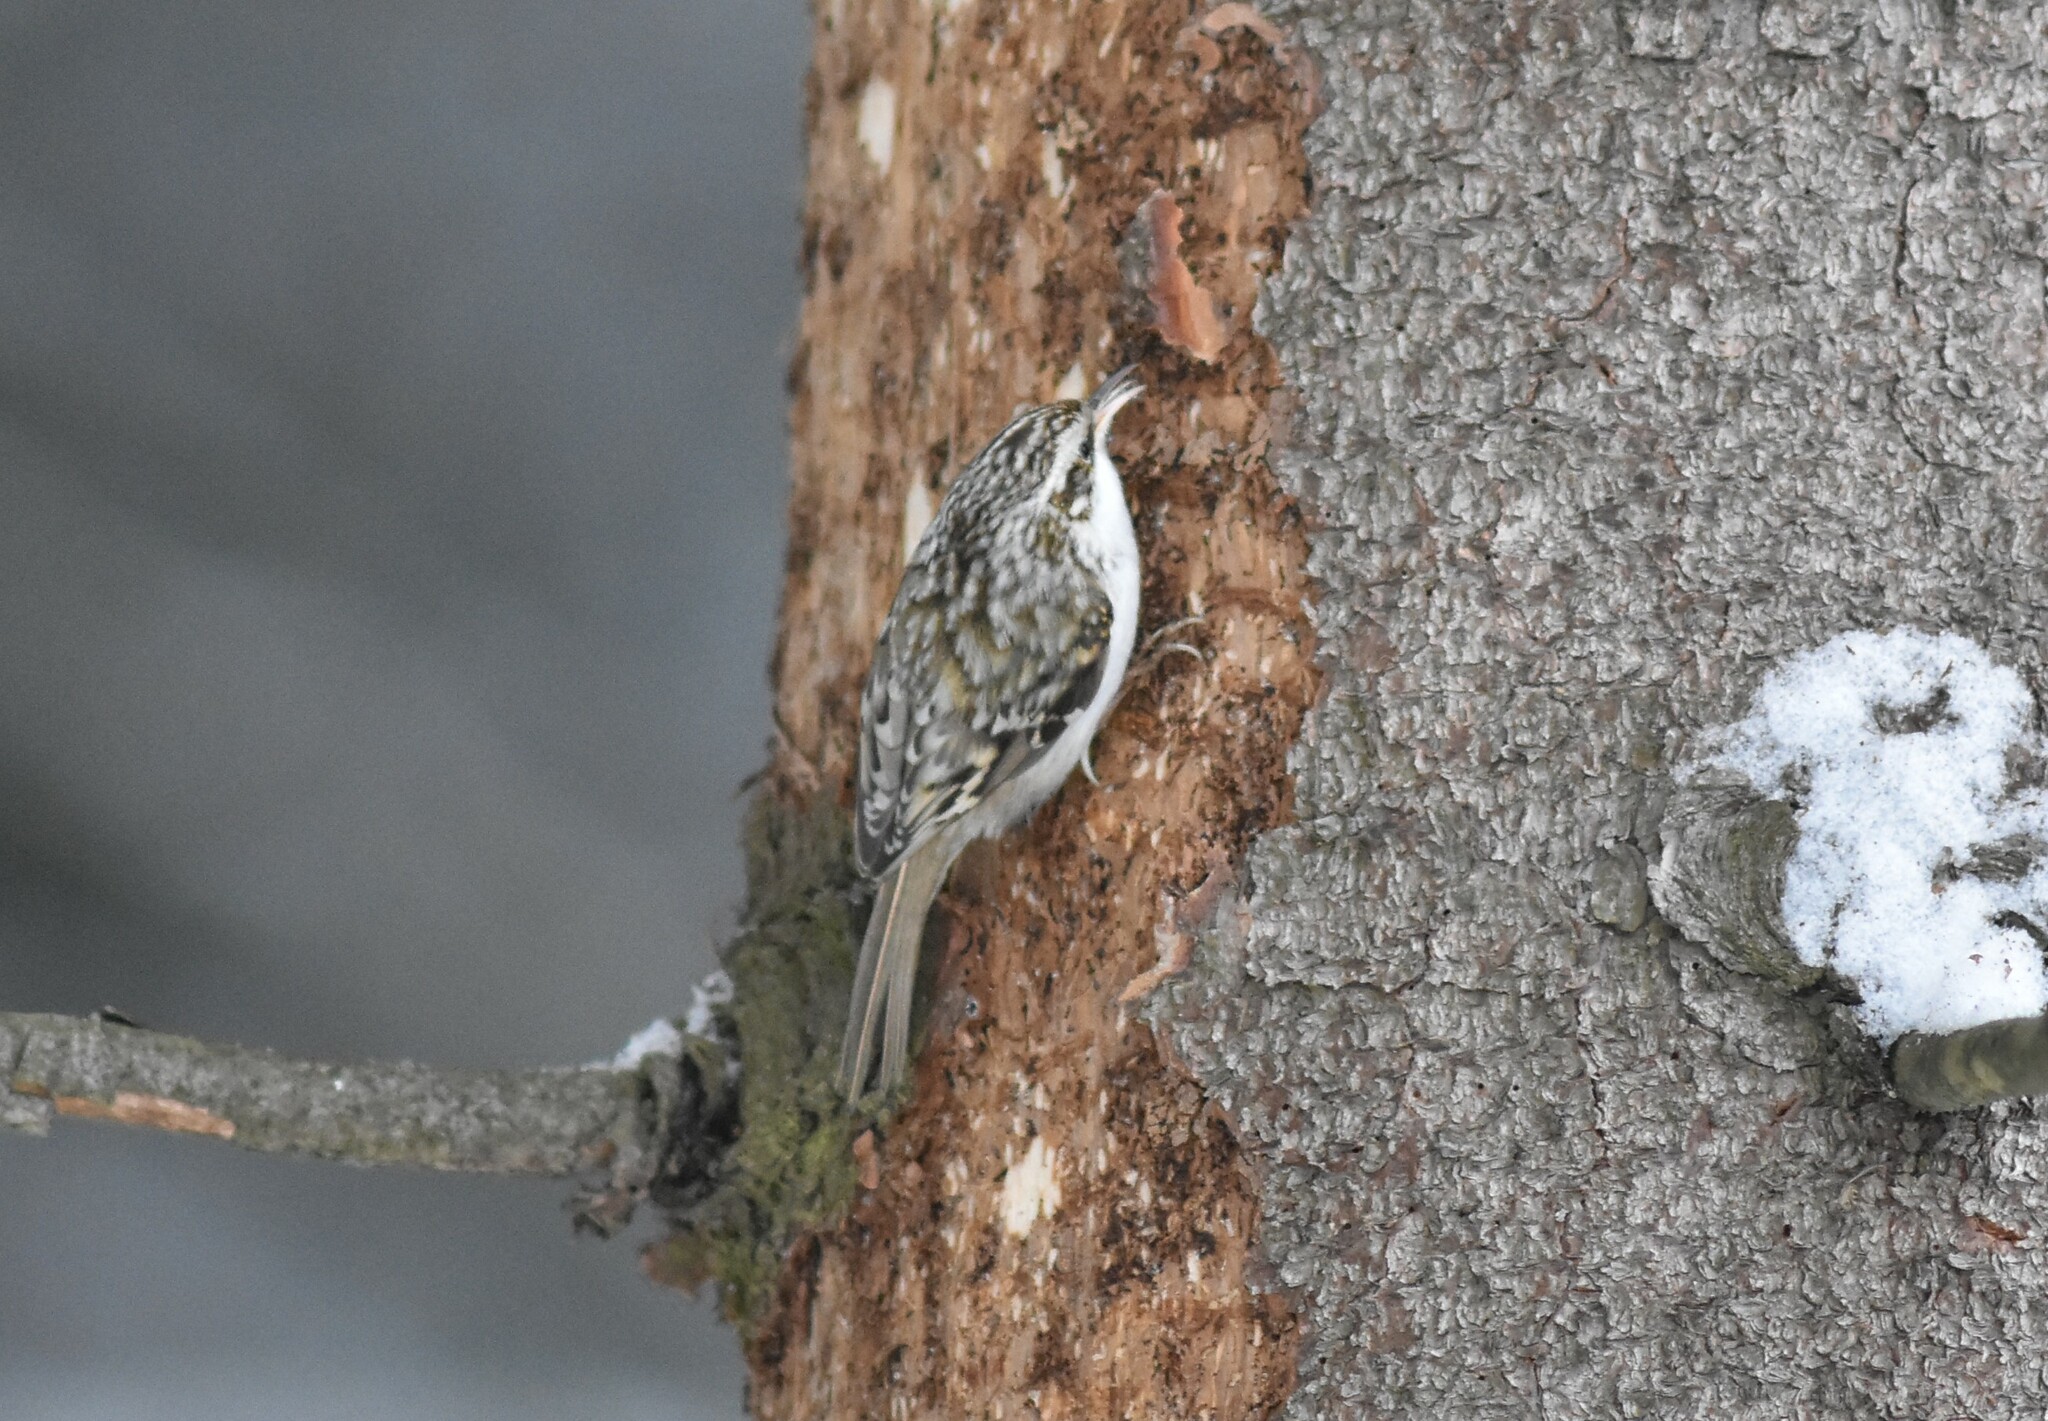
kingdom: Animalia
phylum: Chordata
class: Aves
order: Passeriformes
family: Certhiidae
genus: Certhia
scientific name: Certhia familiaris
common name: Eurasian treecreeper
